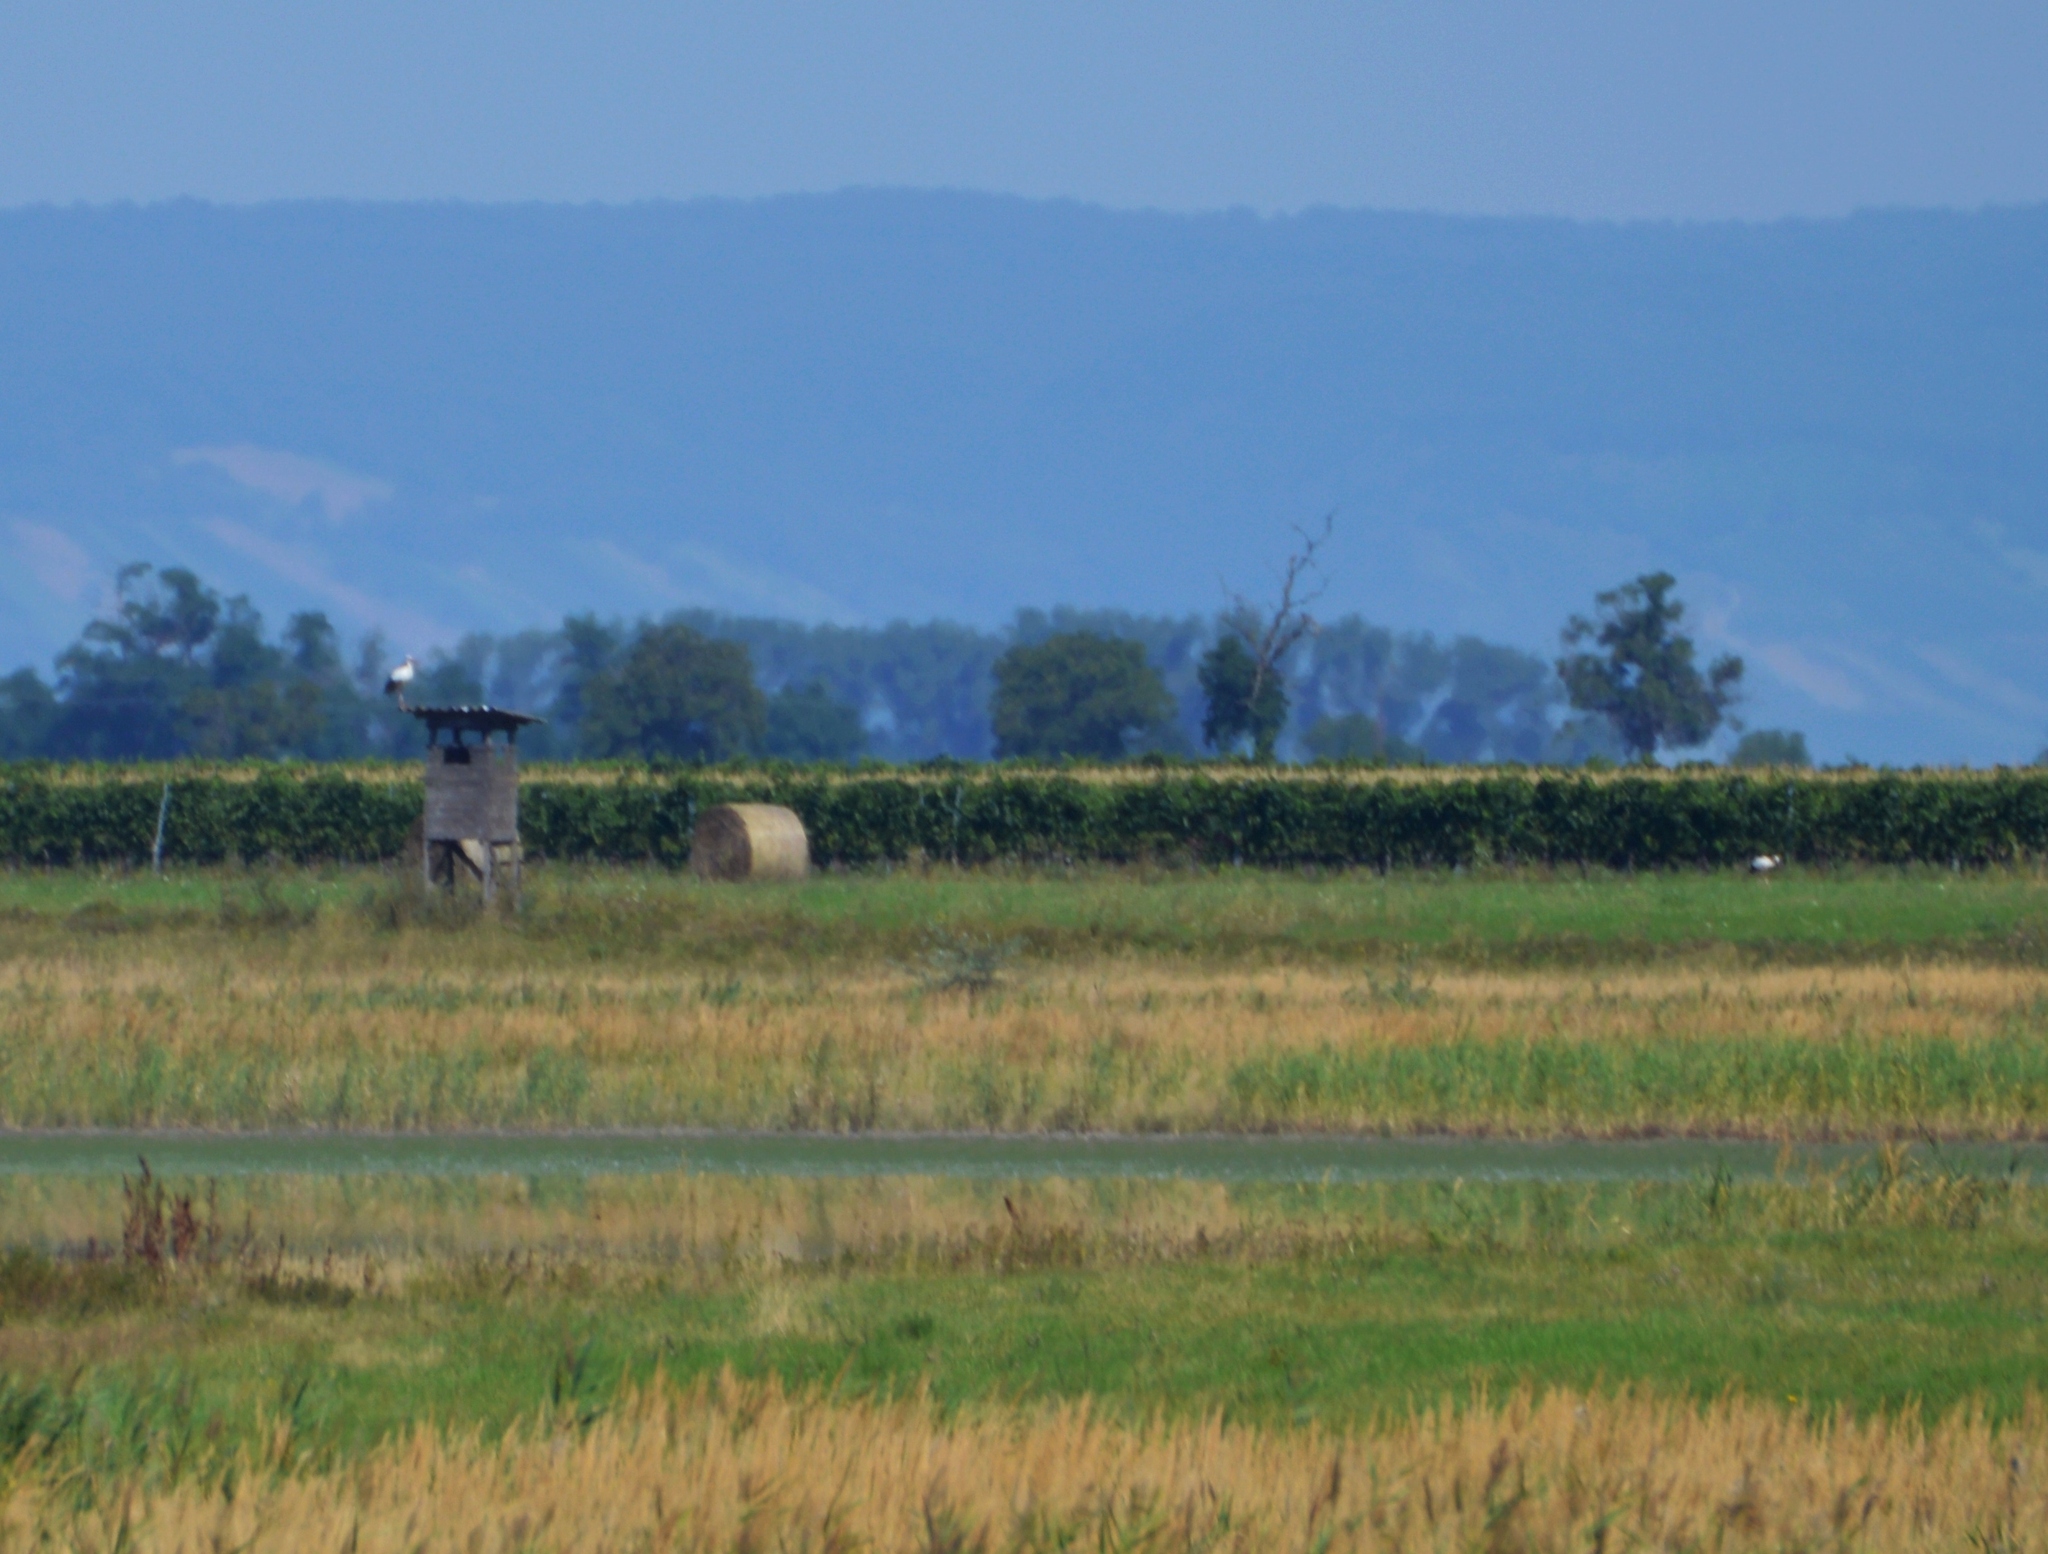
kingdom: Animalia
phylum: Chordata
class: Aves
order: Ciconiiformes
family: Ciconiidae
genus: Ciconia
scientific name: Ciconia ciconia
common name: White stork
